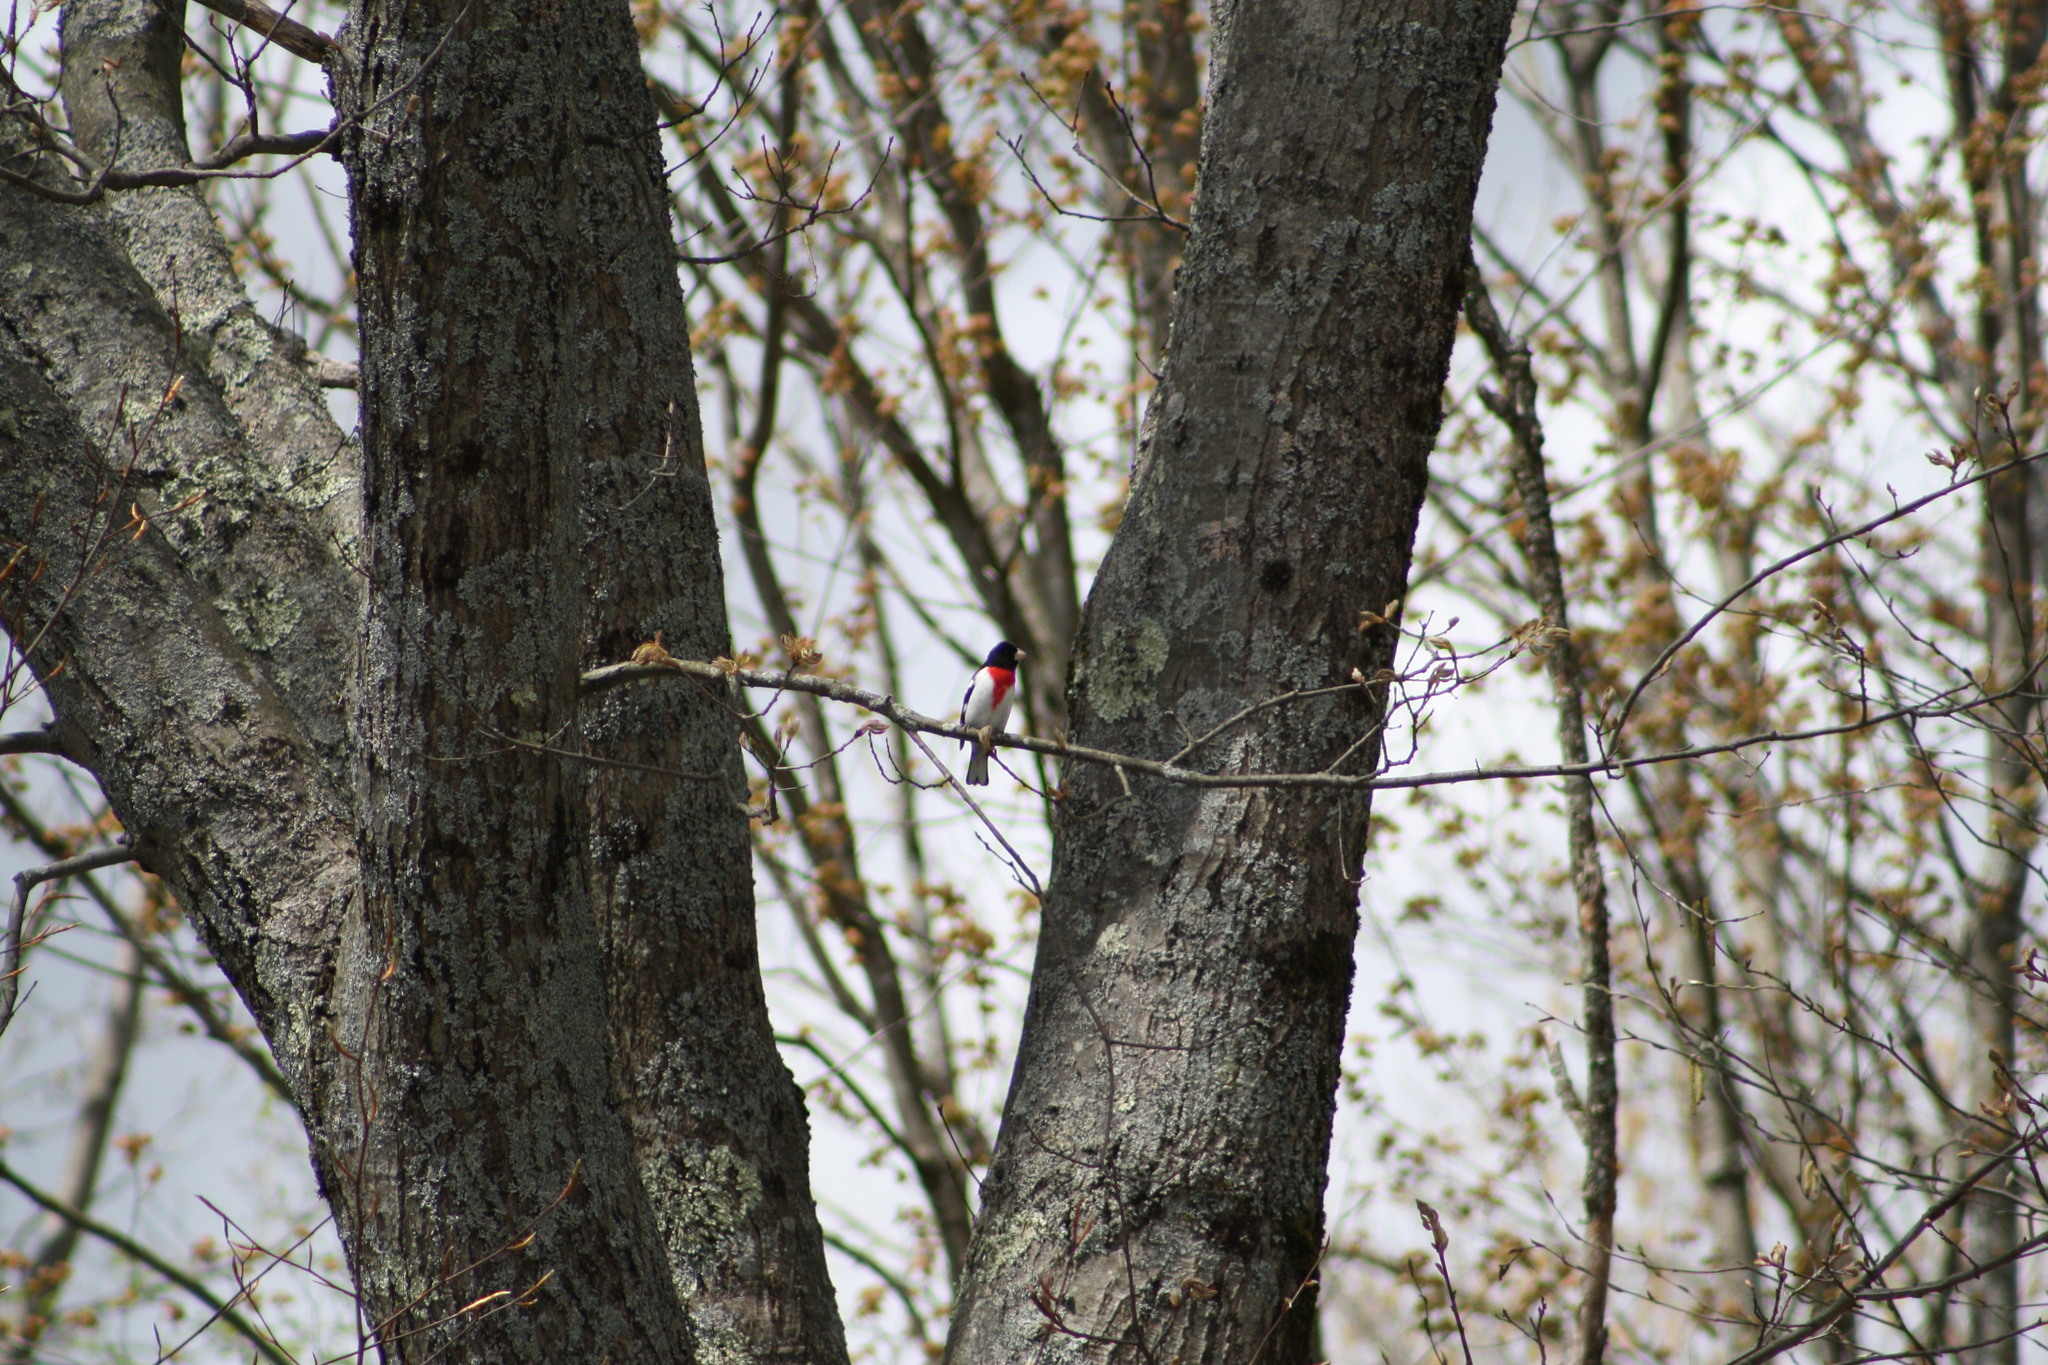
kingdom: Animalia
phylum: Chordata
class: Aves
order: Passeriformes
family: Cardinalidae
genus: Pheucticus
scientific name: Pheucticus ludovicianus
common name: Rose-breasted grosbeak
